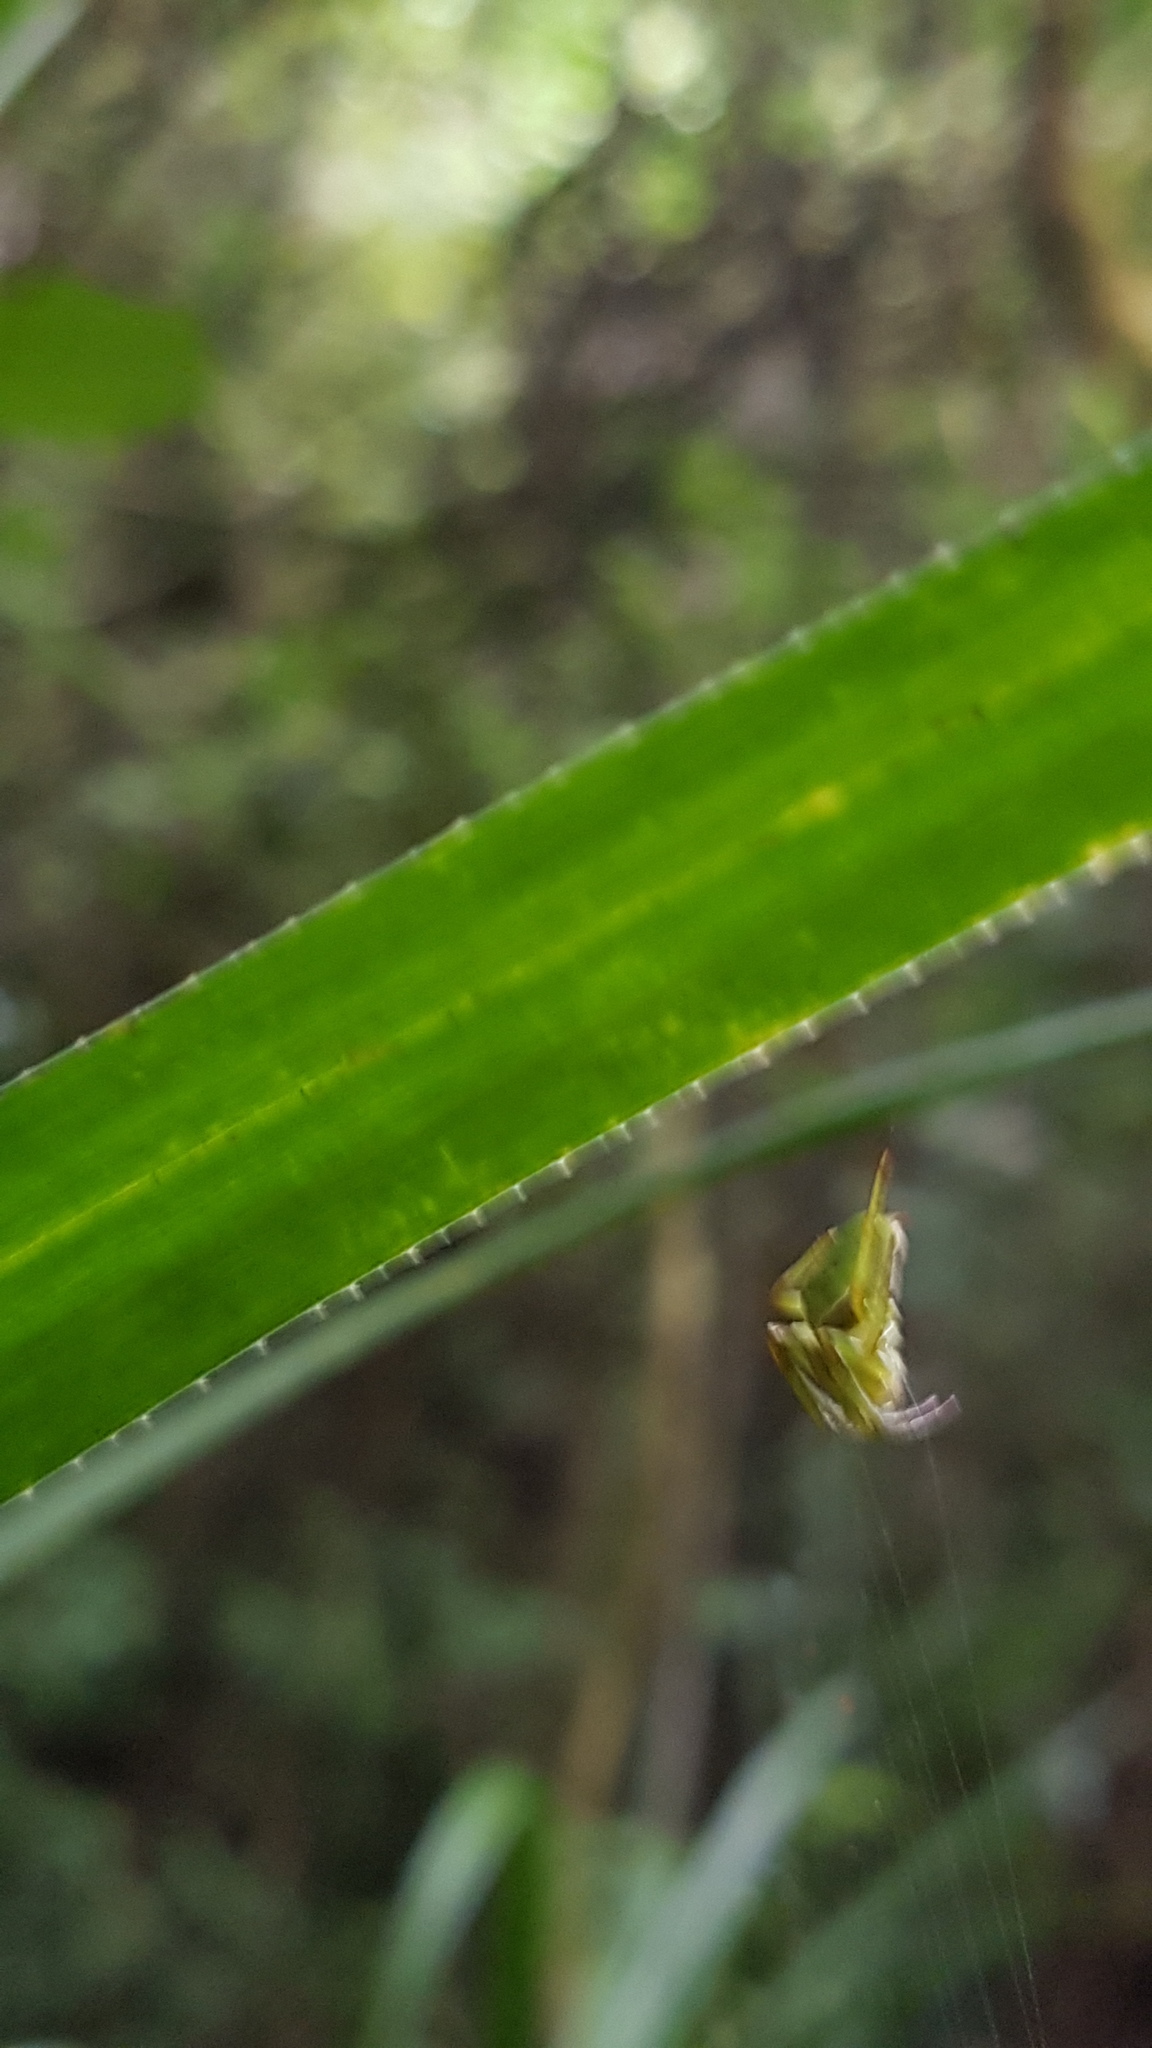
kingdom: Animalia
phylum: Arthropoda
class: Arachnida
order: Araneae
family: Araneidae
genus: Colaranea
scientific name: Colaranea viriditas
